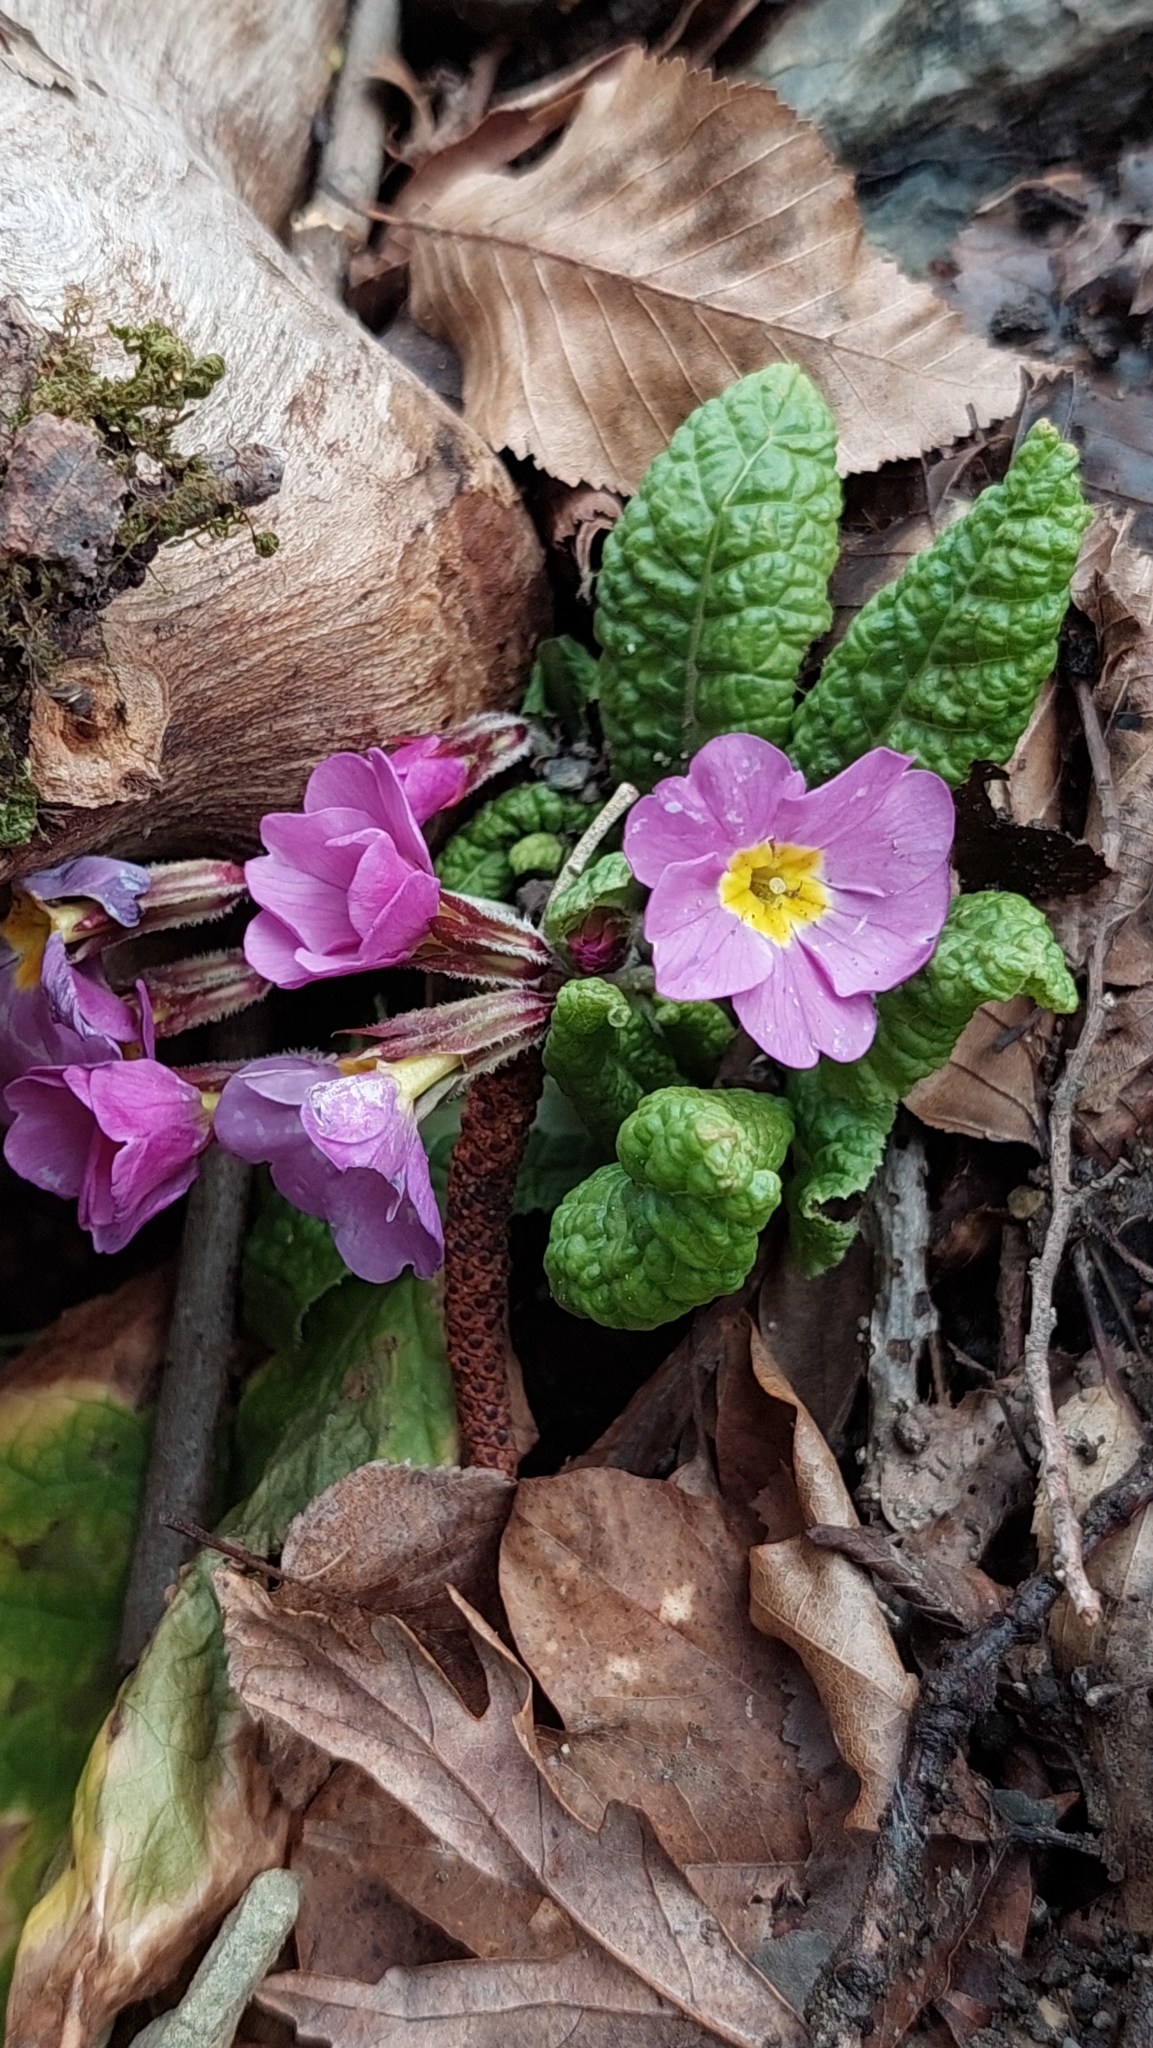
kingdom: Plantae
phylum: Tracheophyta
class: Magnoliopsida
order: Ericales
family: Primulaceae
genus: Primula
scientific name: Primula vulgaris
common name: Primrose
